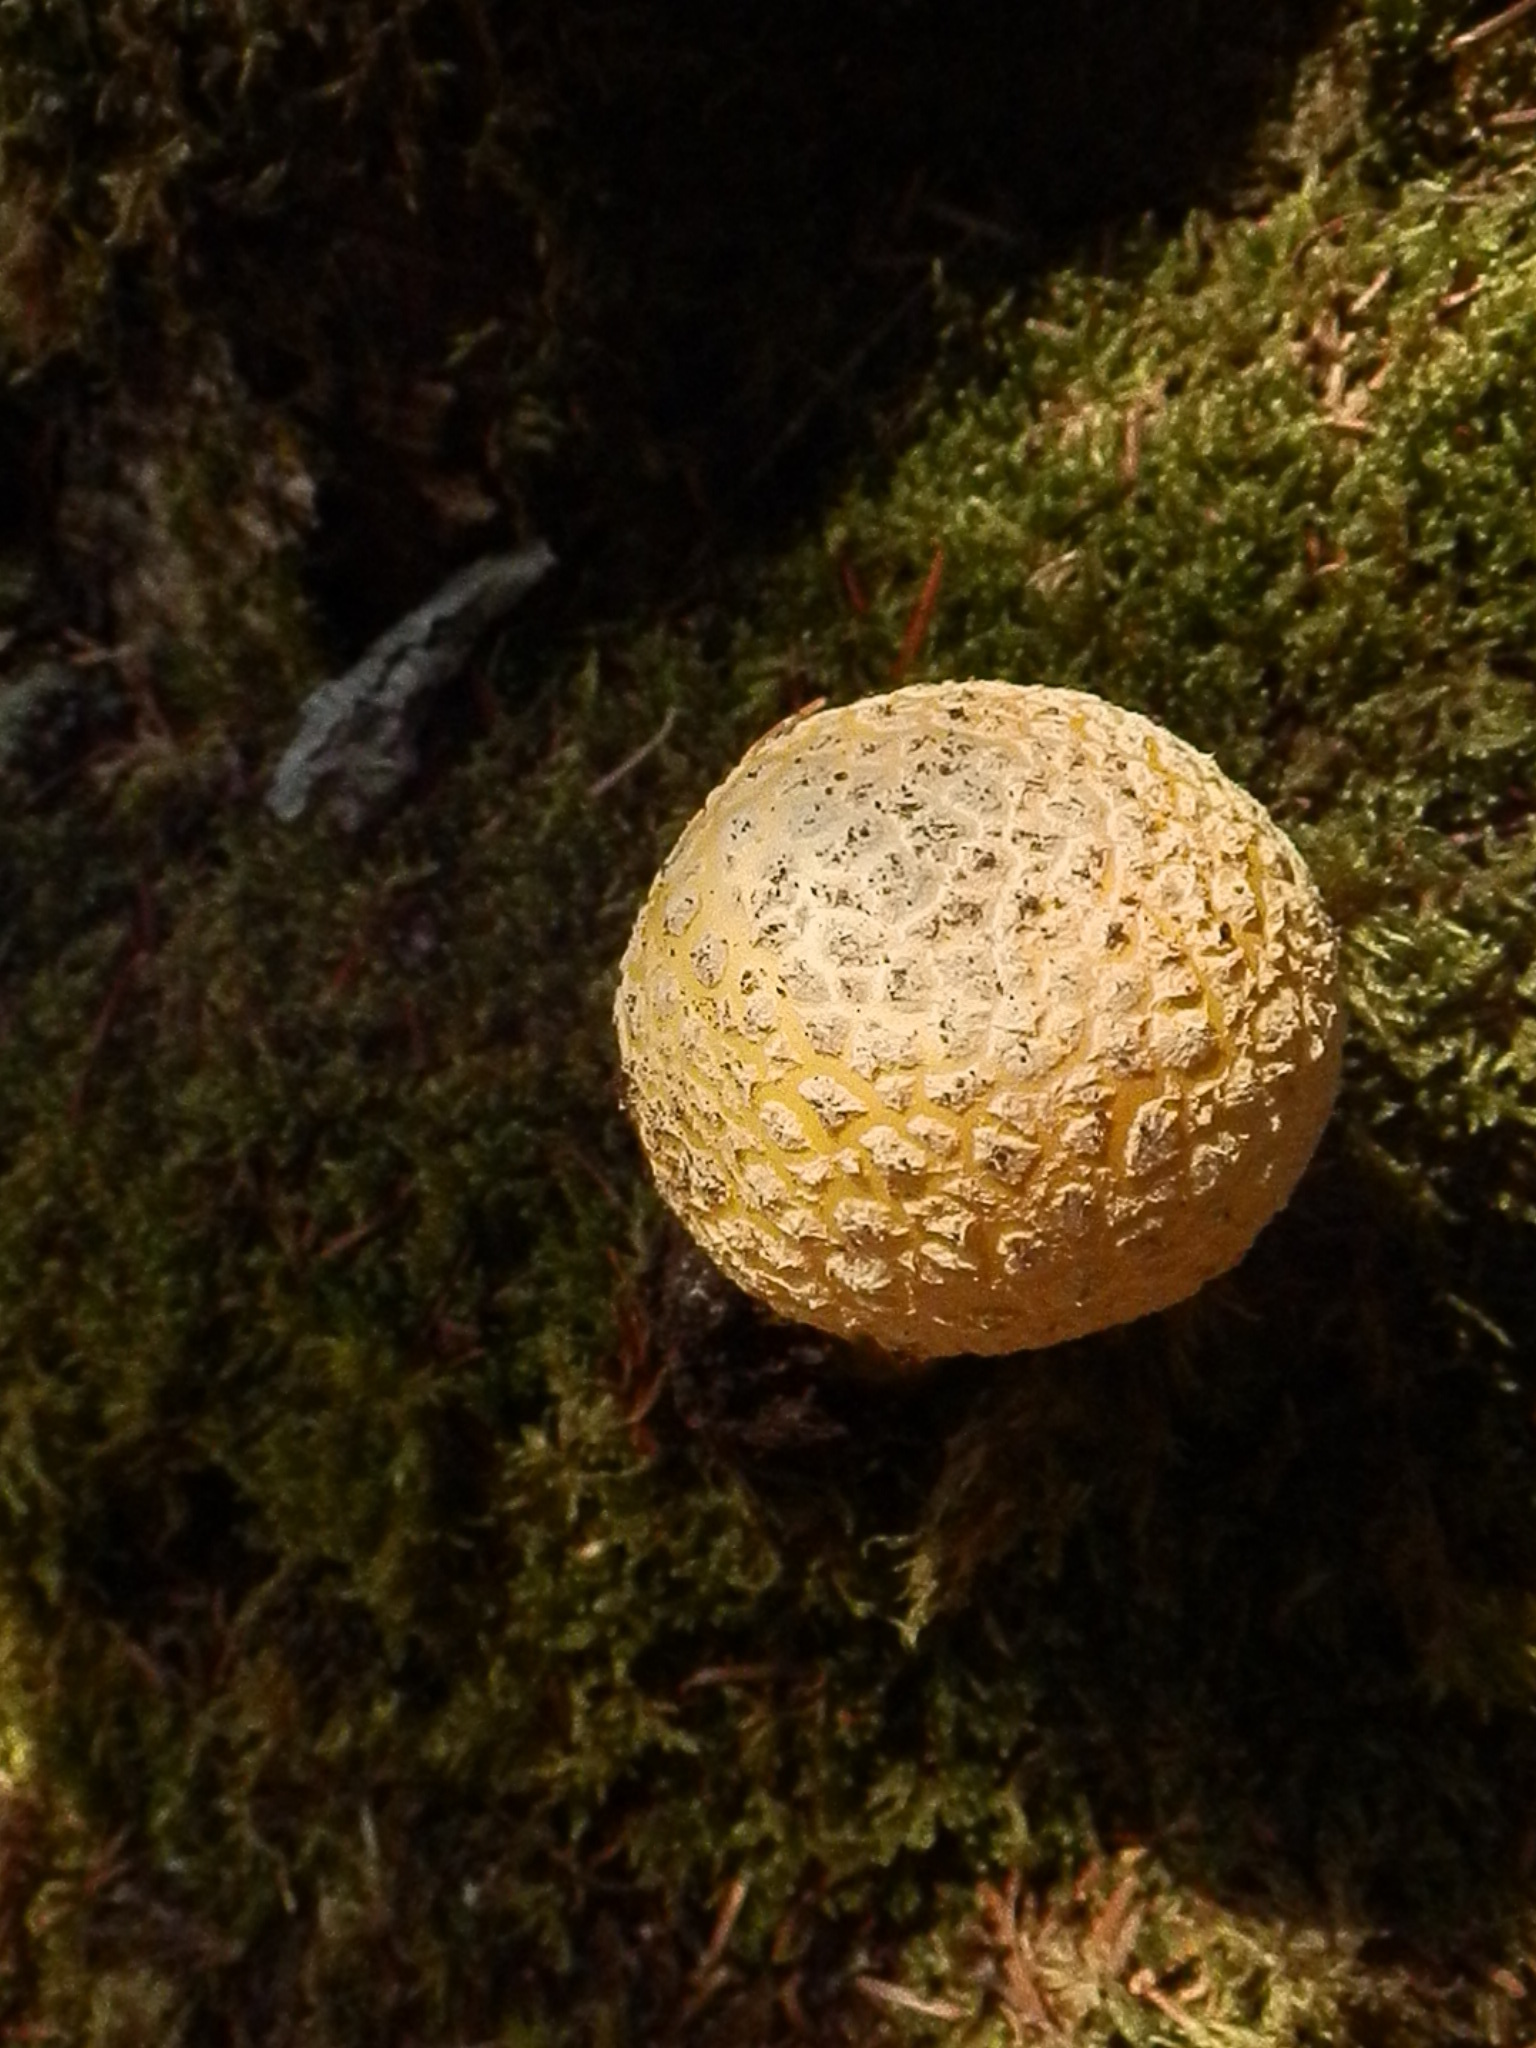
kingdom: Fungi
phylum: Basidiomycota
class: Agaricomycetes
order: Agaricales
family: Amanitaceae
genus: Amanita
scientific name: Amanita muscaria
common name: Fly agaric
